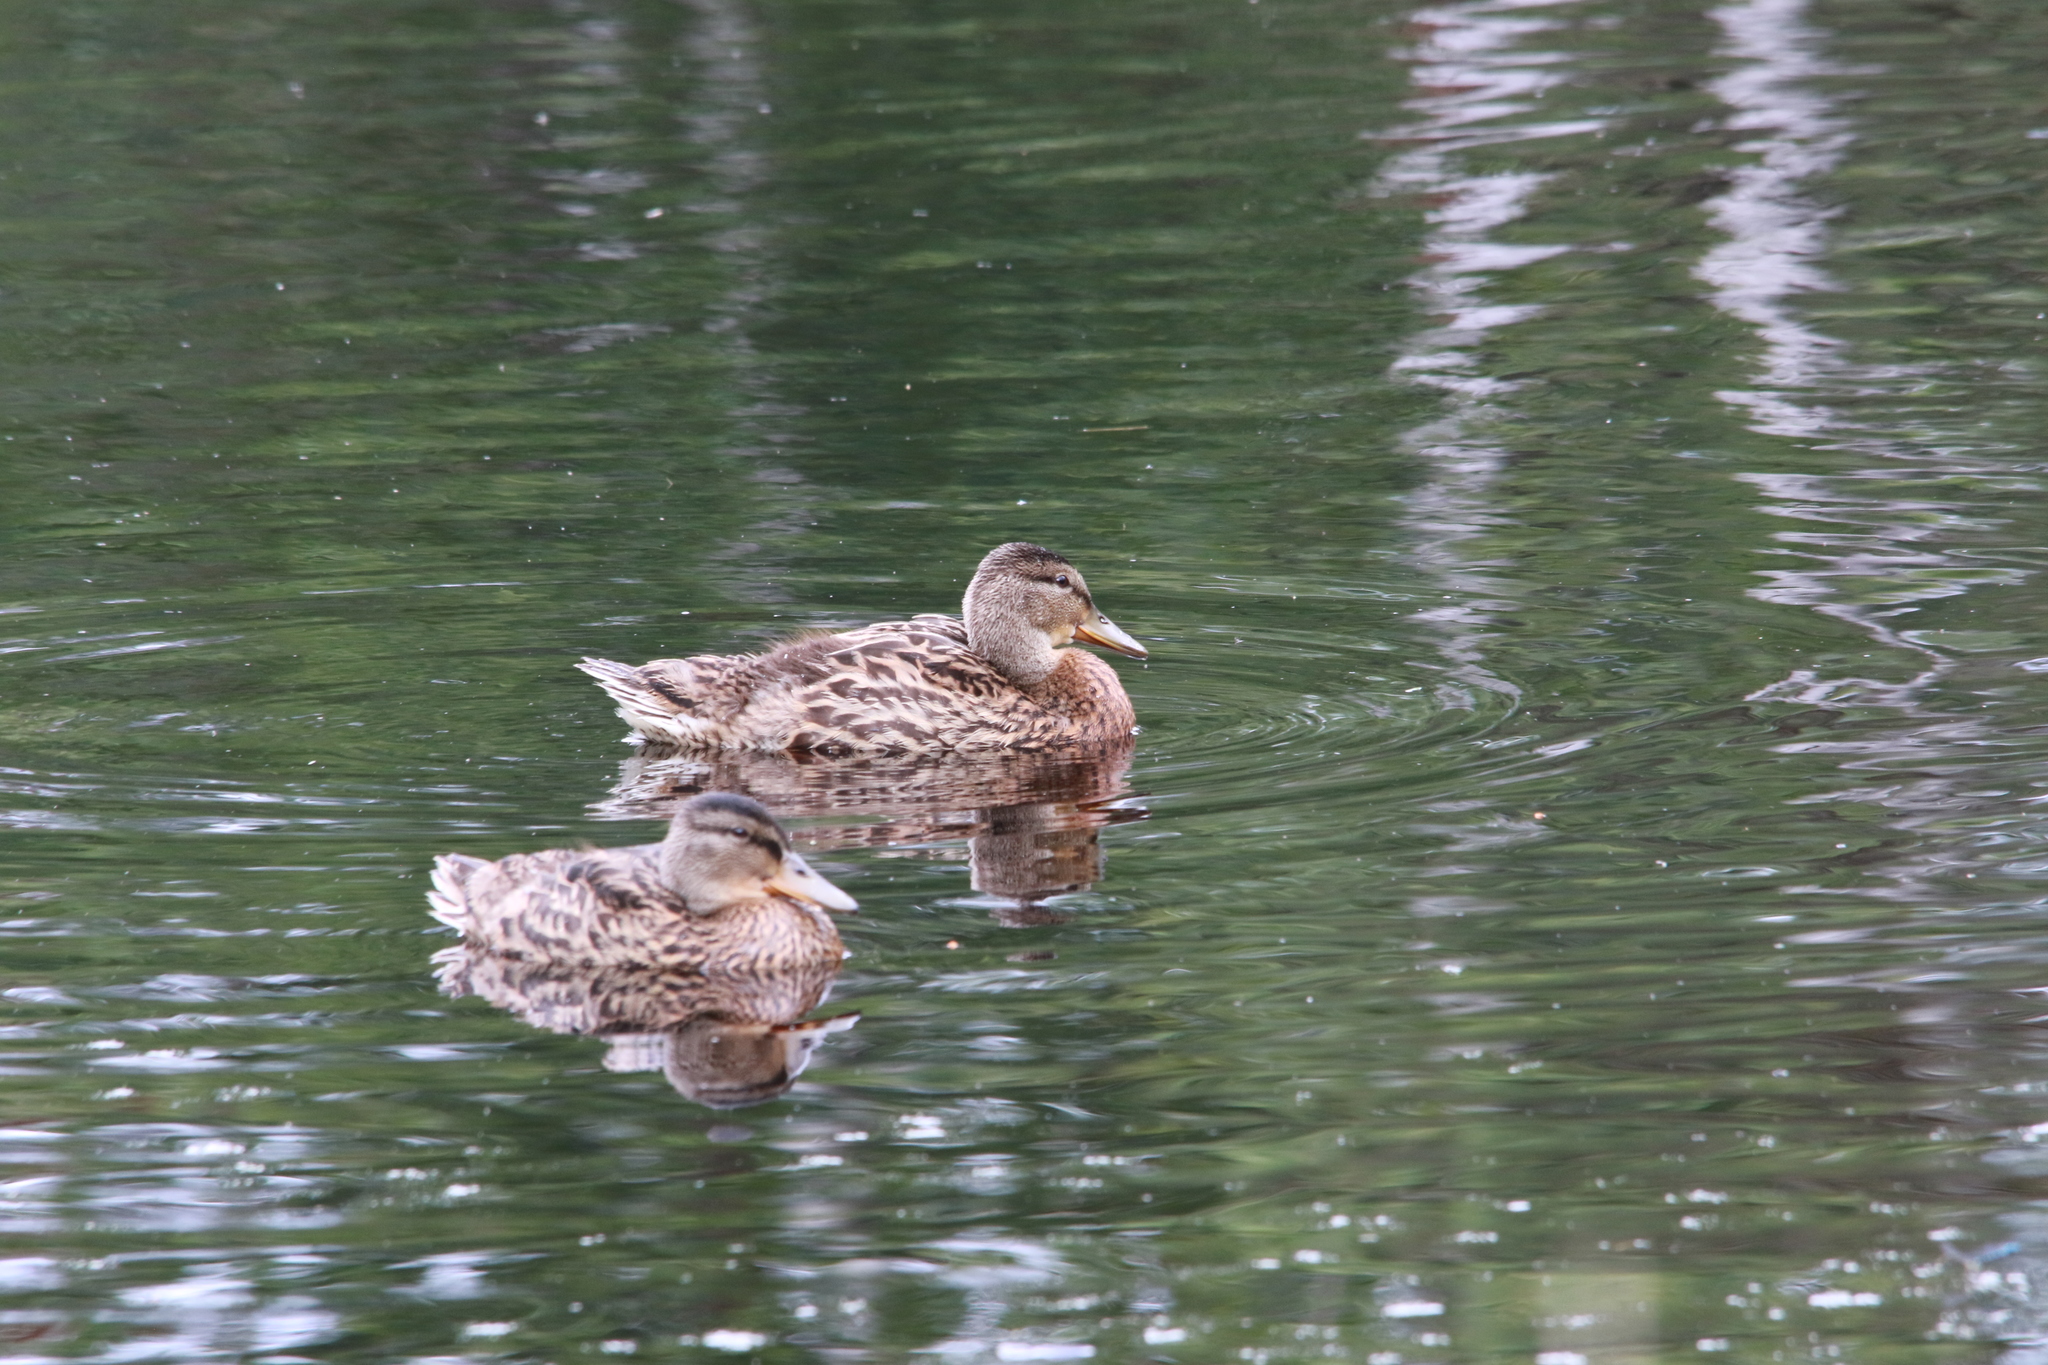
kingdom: Animalia
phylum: Chordata
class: Aves
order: Anseriformes
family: Anatidae
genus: Anas
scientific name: Anas platyrhynchos
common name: Mallard
